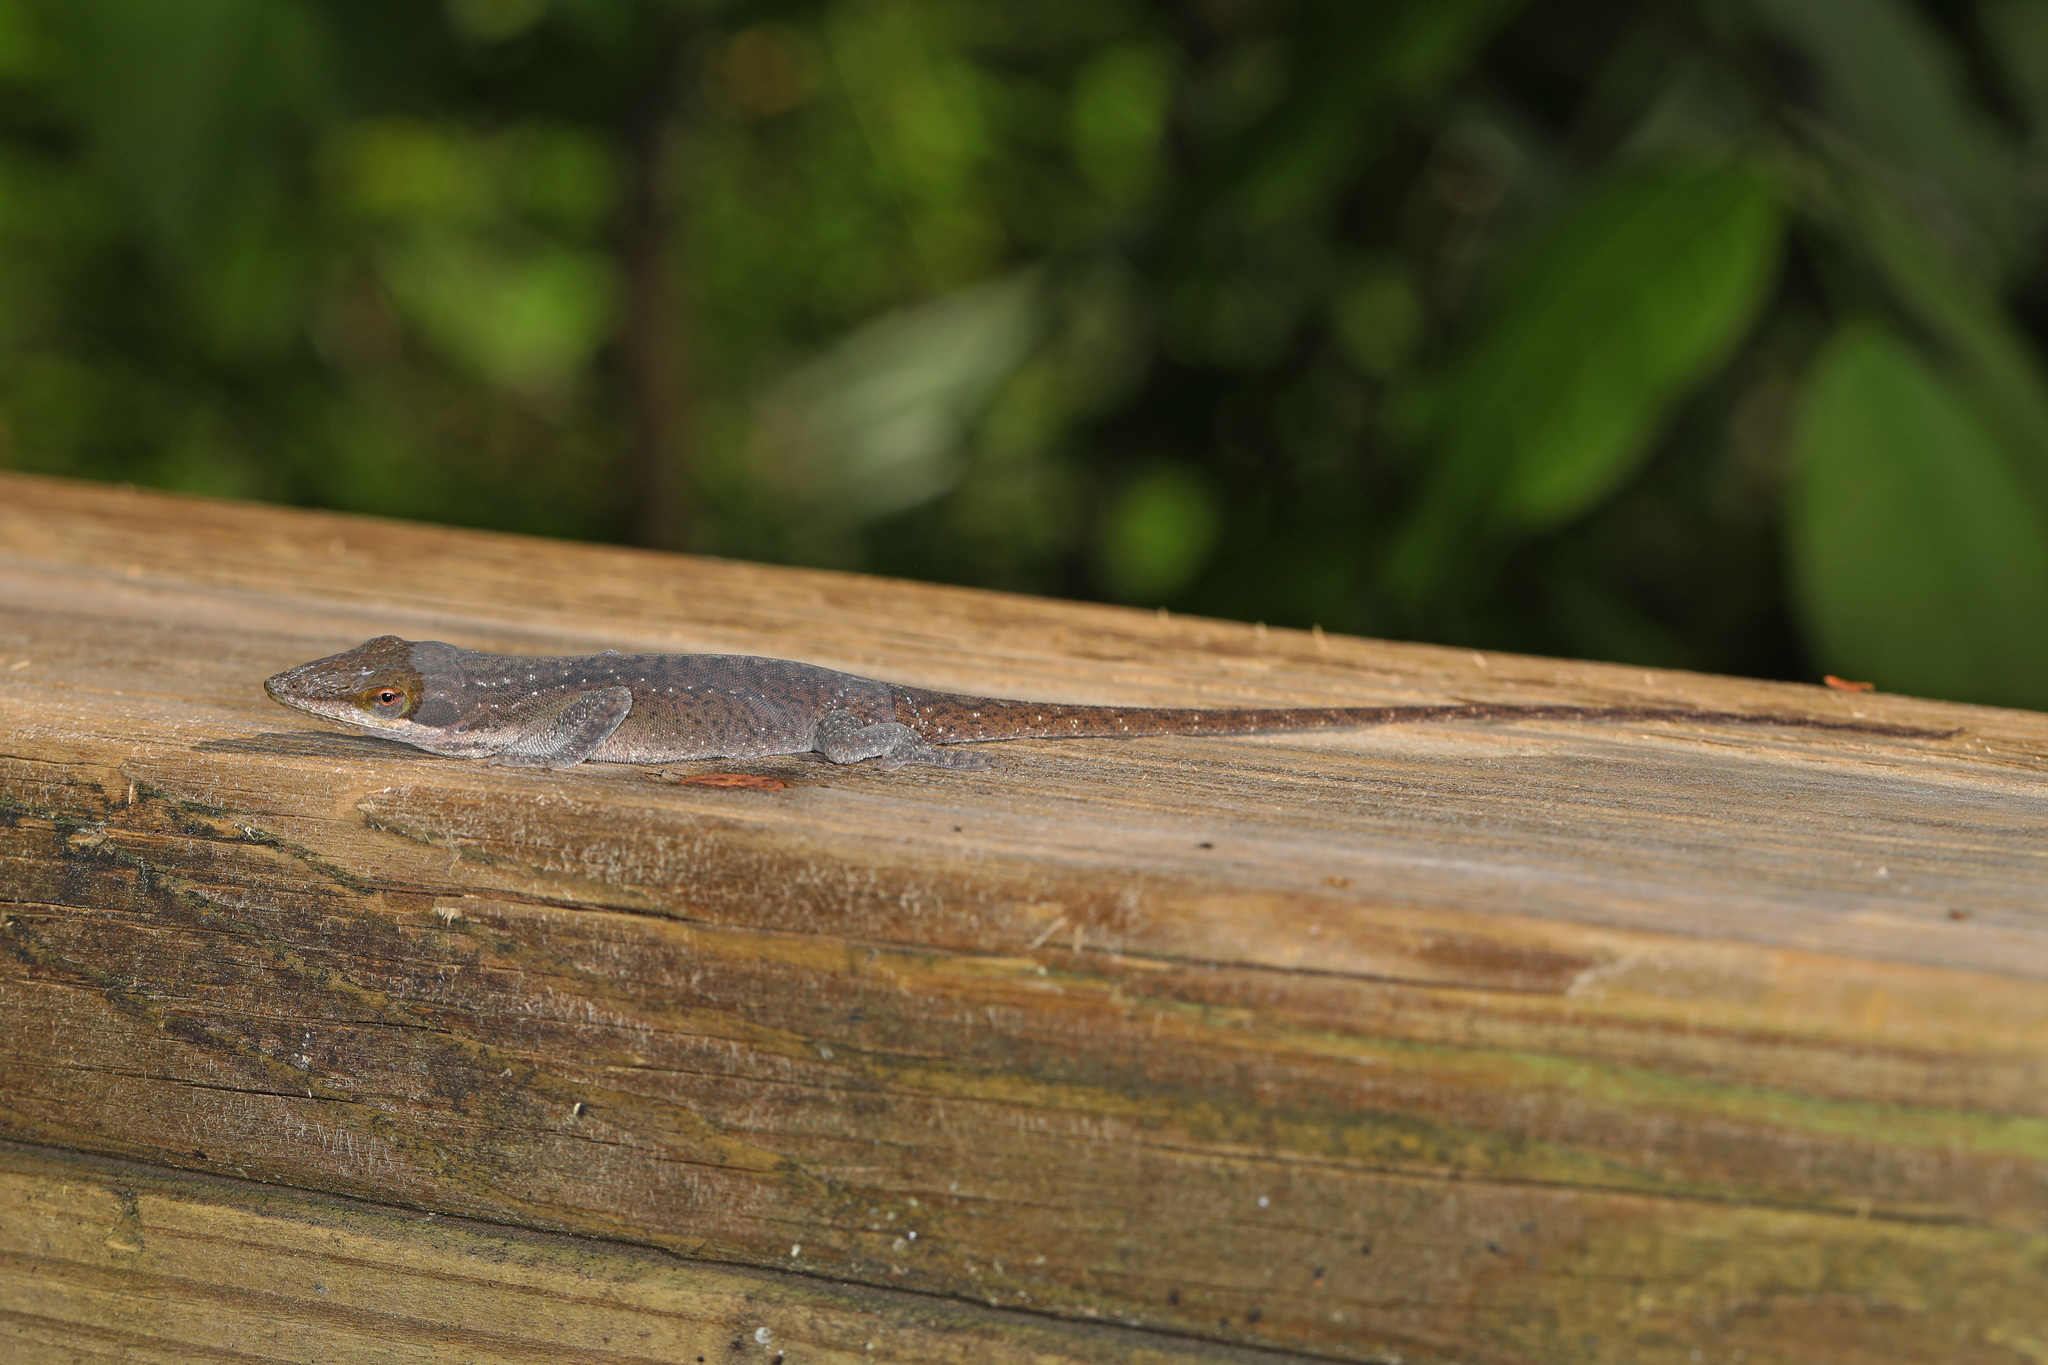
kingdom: Animalia
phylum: Chordata
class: Squamata
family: Dactyloidae
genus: Anolis
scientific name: Anolis carolinensis
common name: Green anole
